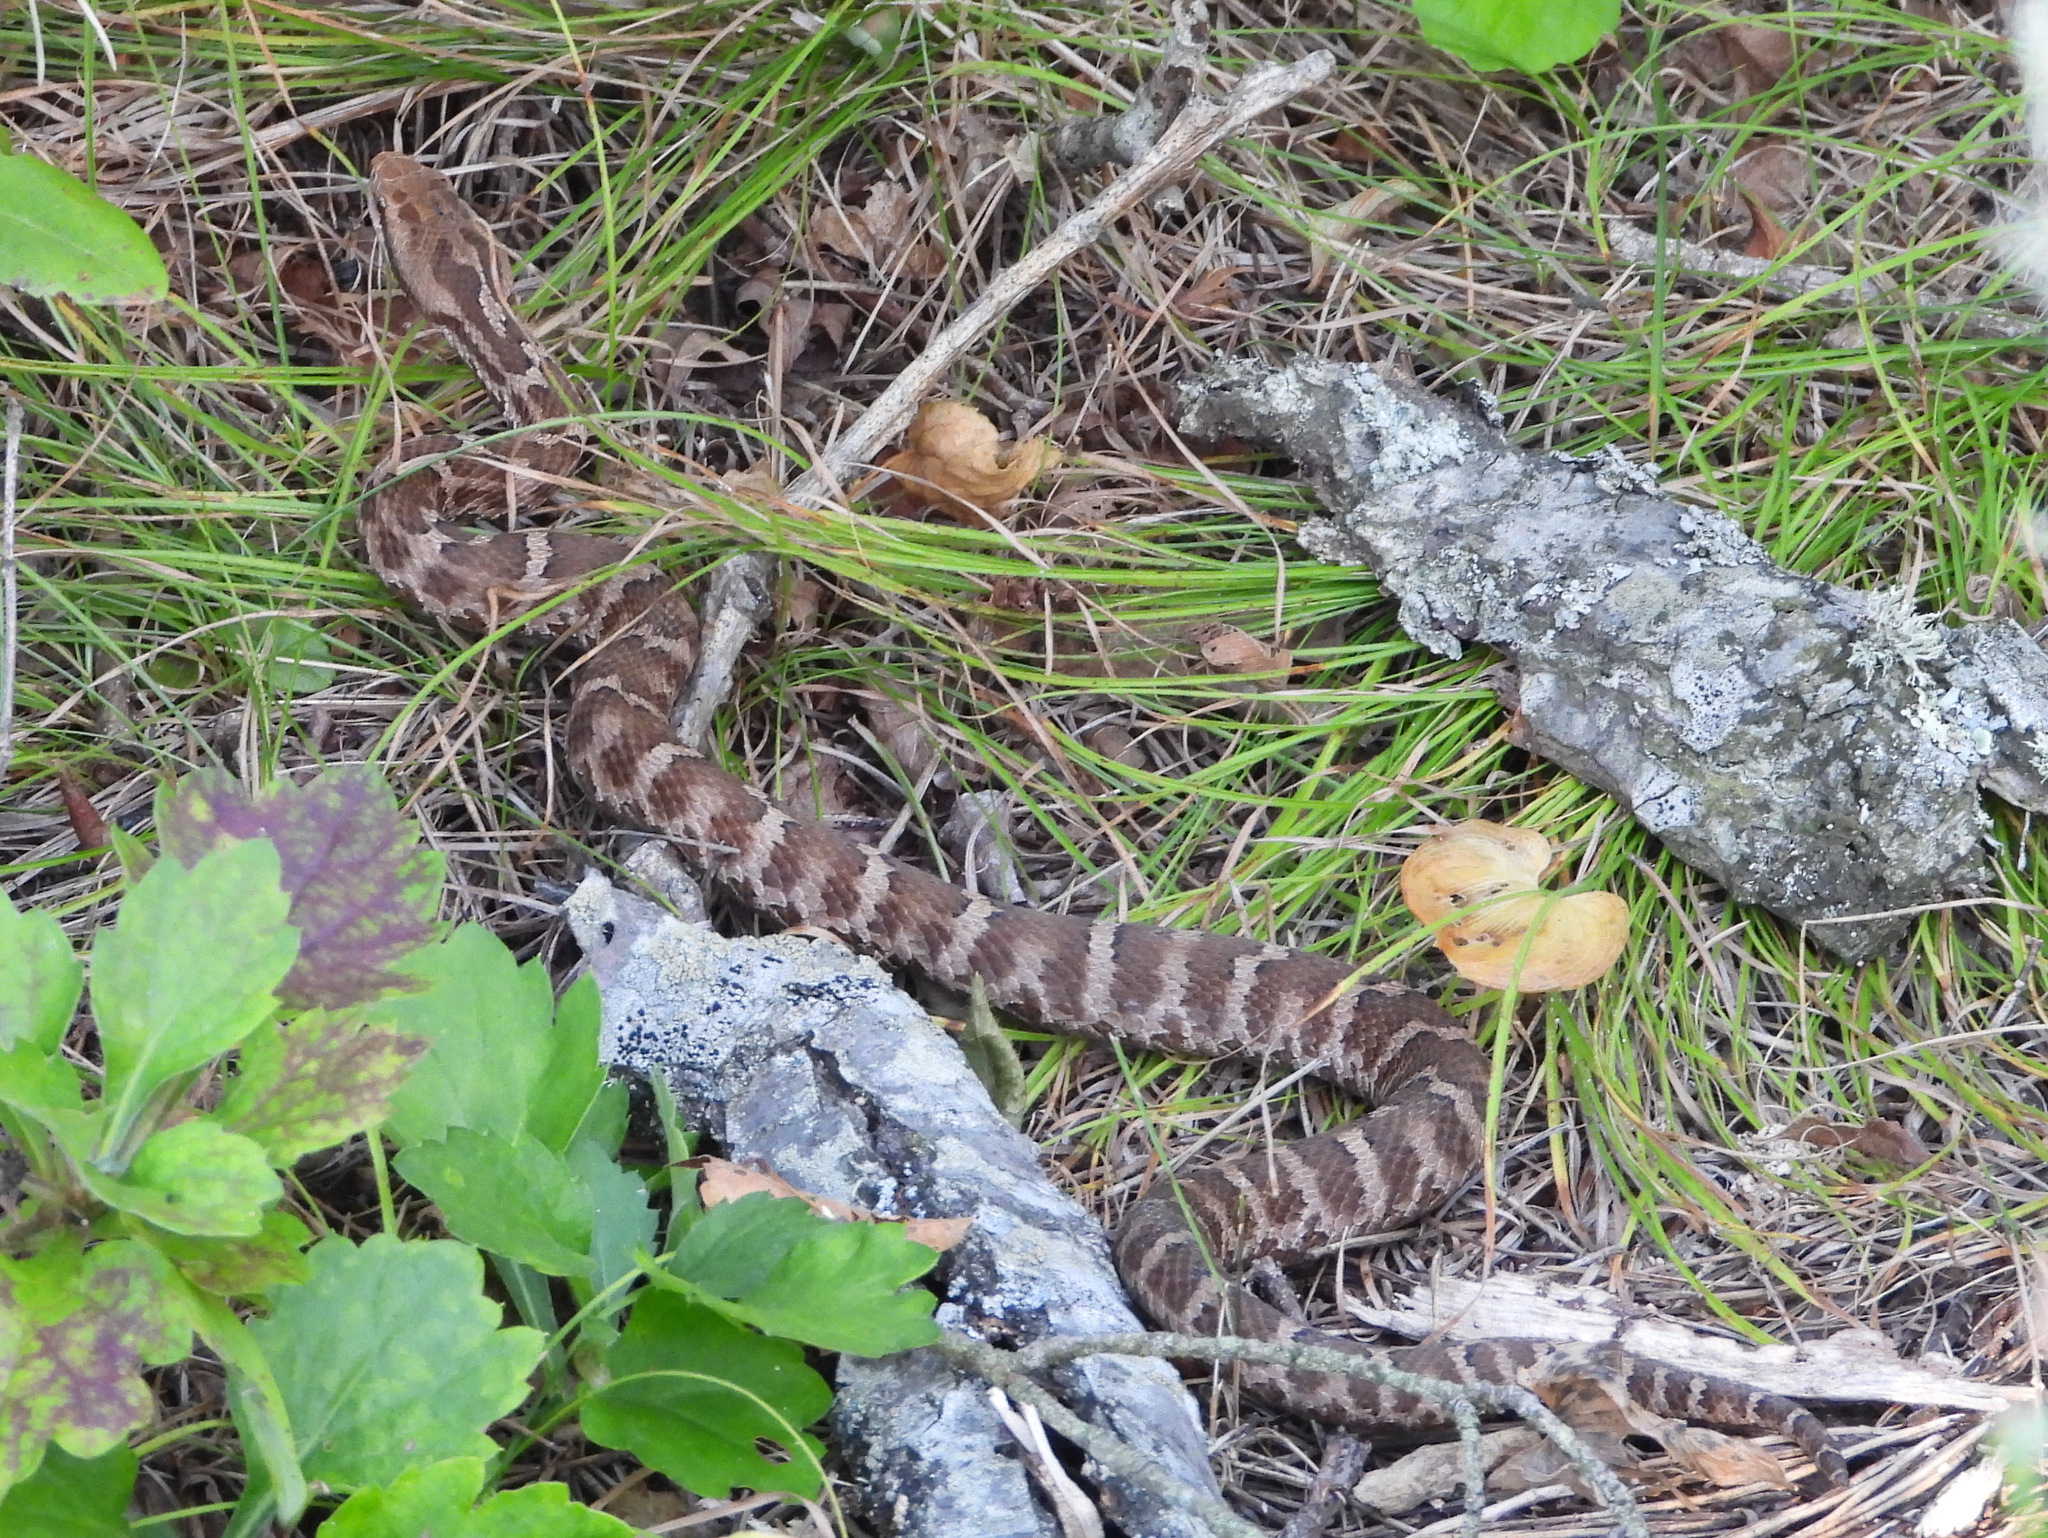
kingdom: Animalia
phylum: Chordata
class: Squamata
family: Viperidae
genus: Gloydius
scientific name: Gloydius intermedius
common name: Central asian pit viper
